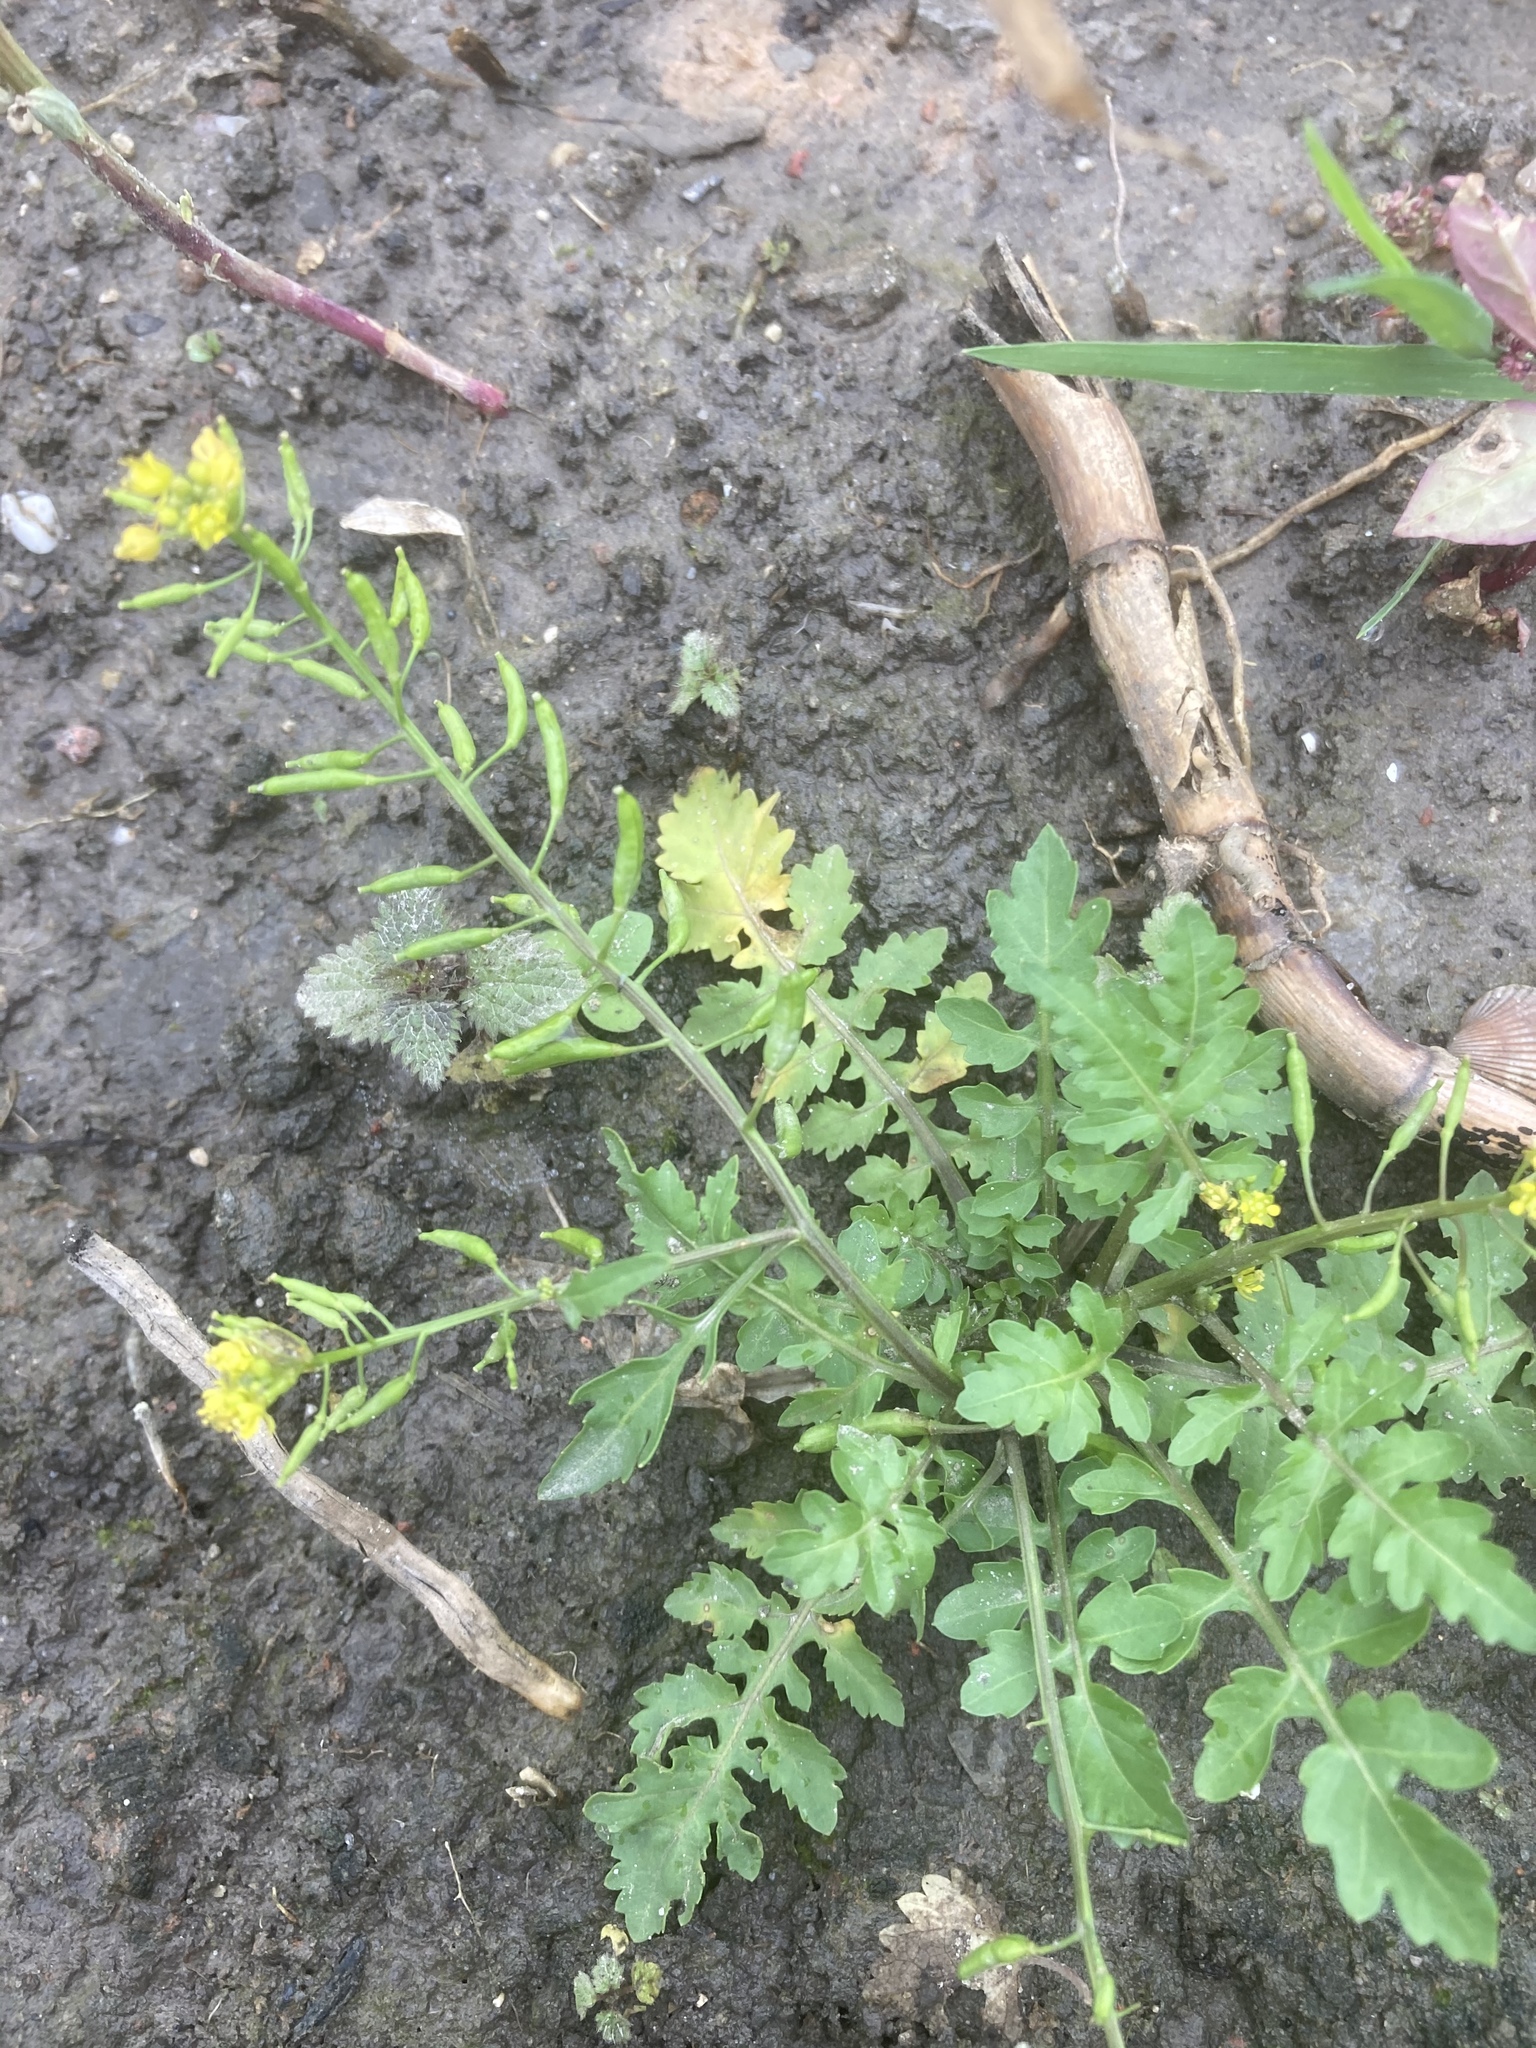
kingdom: Plantae
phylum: Tracheophyta
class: Magnoliopsida
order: Brassicales
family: Brassicaceae
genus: Rorippa
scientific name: Rorippa palustris
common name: Marsh yellow-cress
